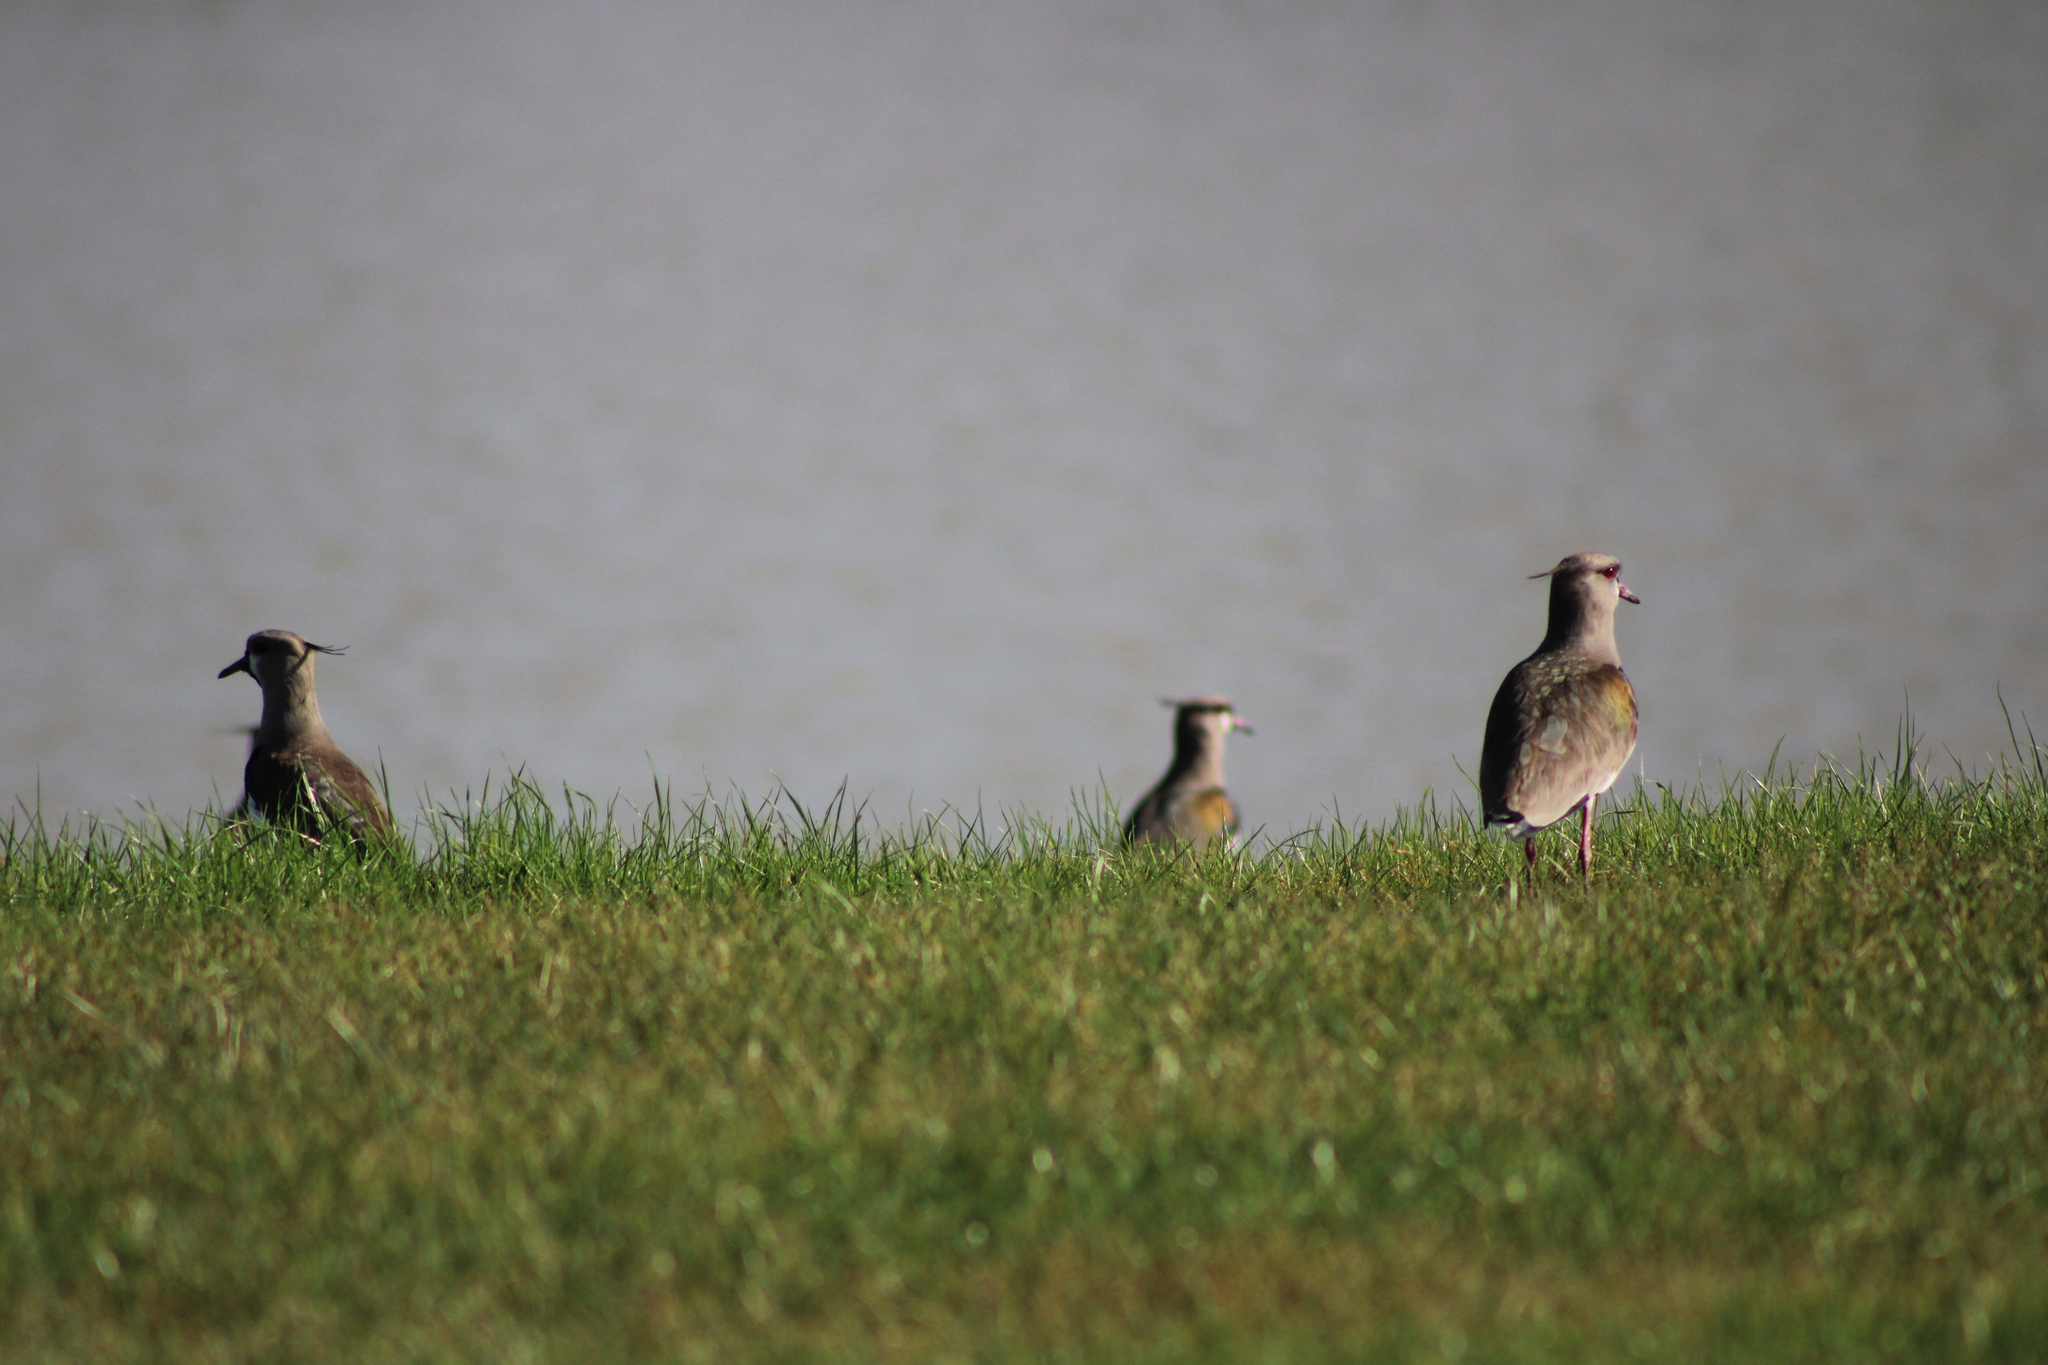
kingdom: Animalia
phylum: Chordata
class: Aves
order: Charadriiformes
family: Charadriidae
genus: Vanellus
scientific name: Vanellus chilensis
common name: Southern lapwing
